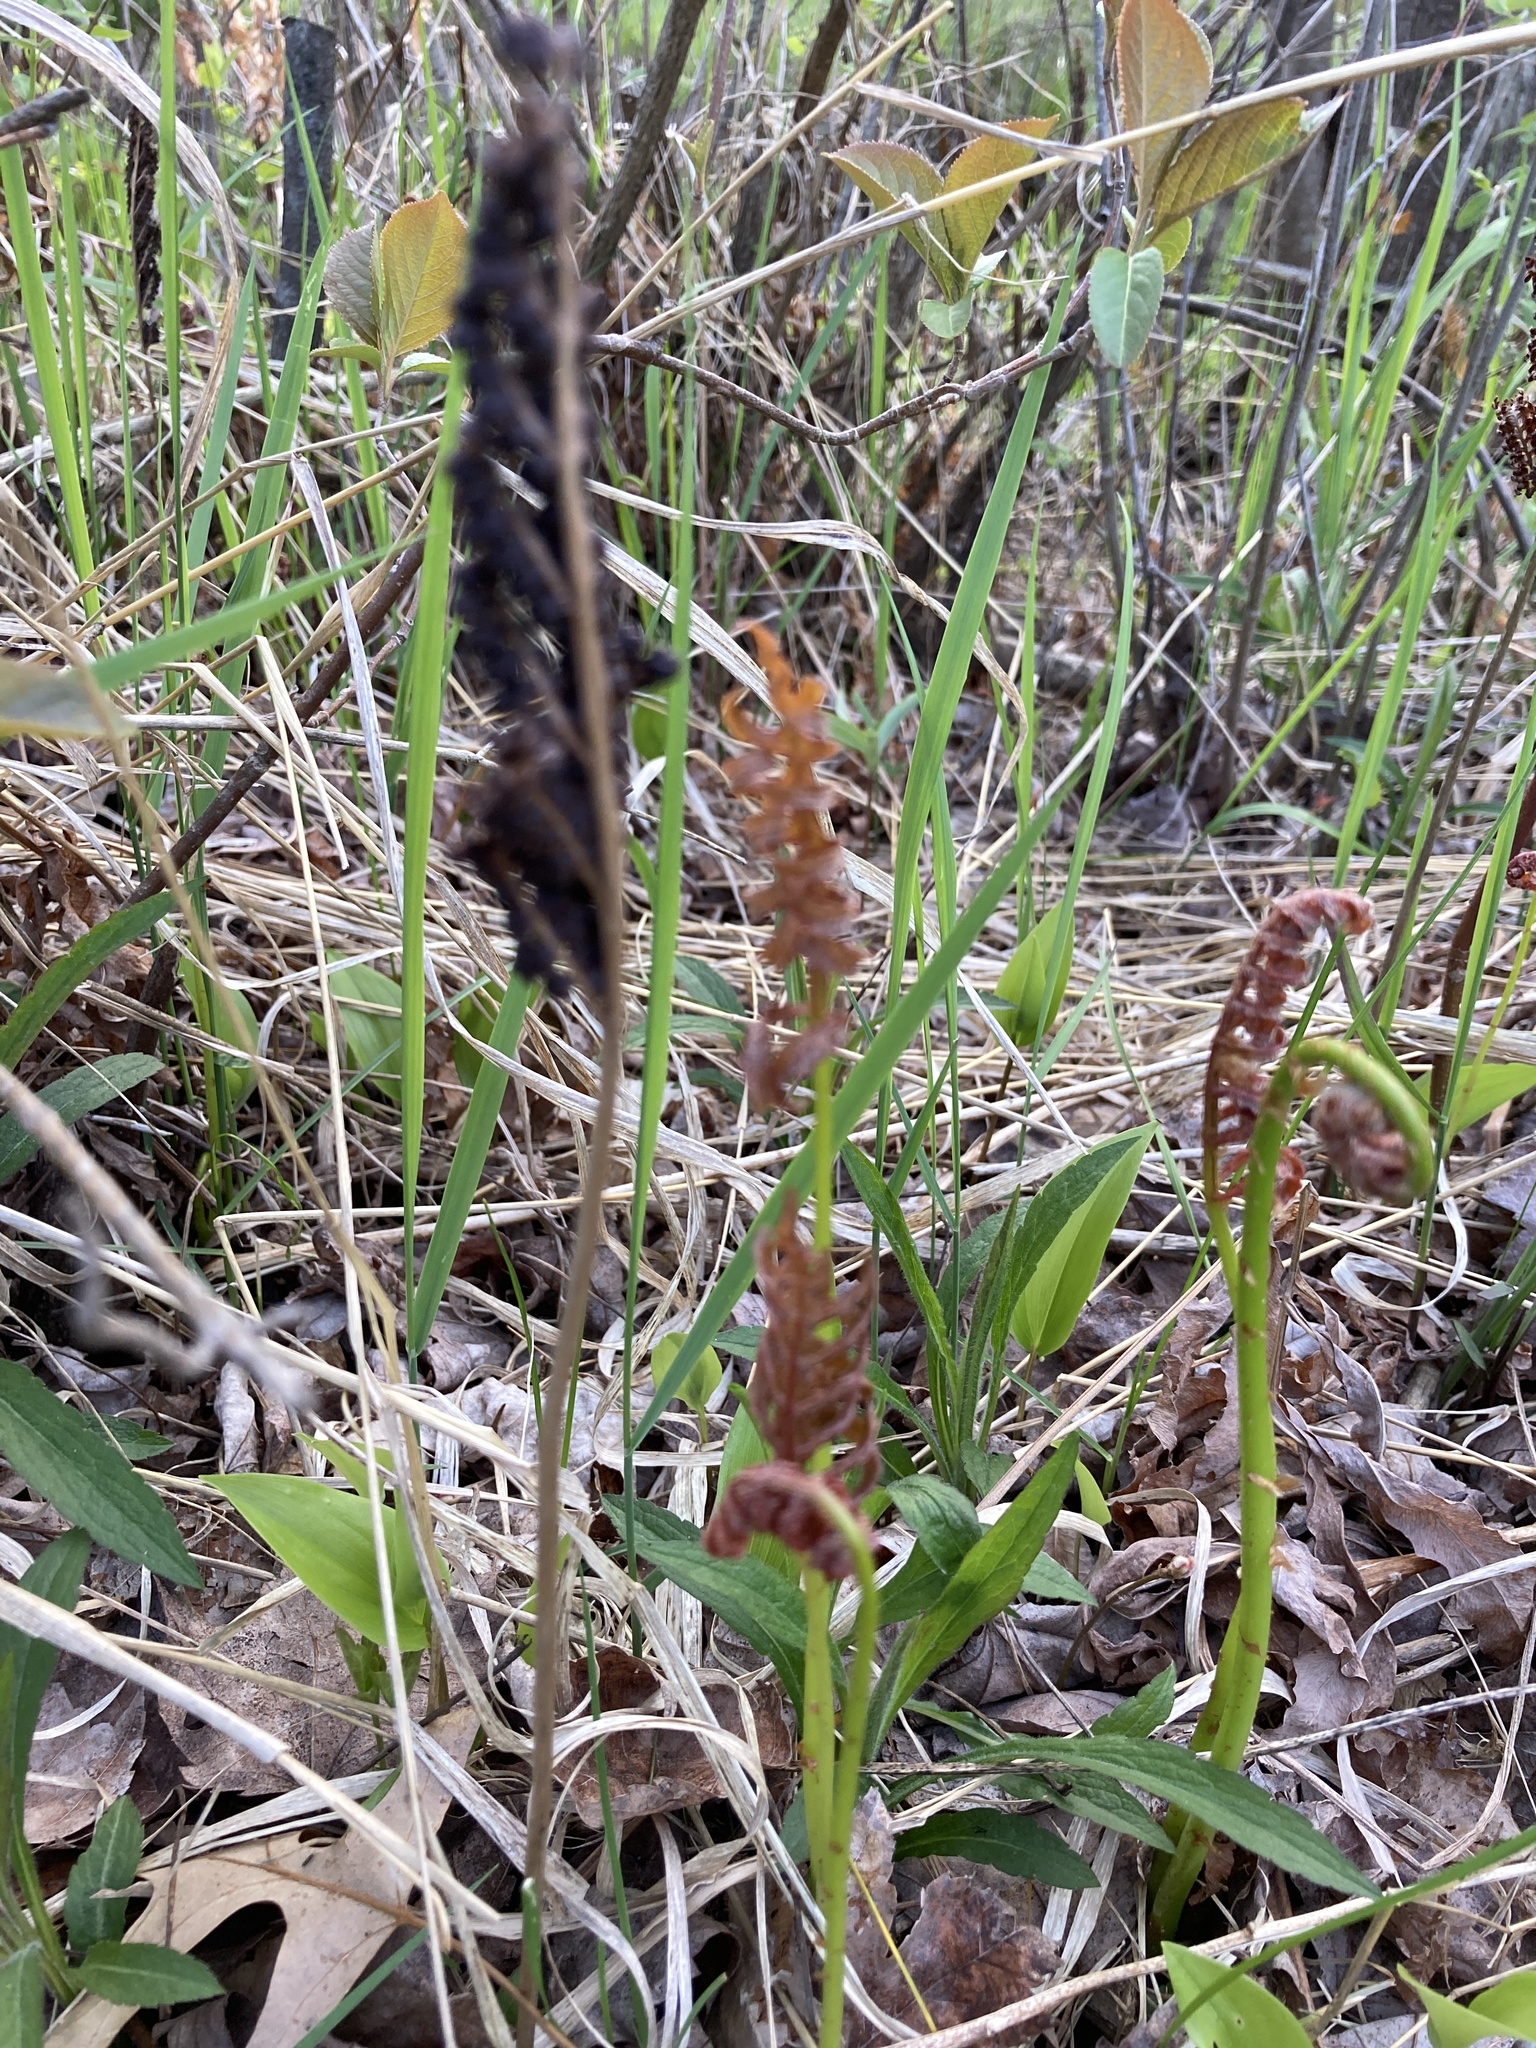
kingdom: Plantae
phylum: Tracheophyta
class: Polypodiopsida
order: Polypodiales
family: Onocleaceae
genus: Onoclea
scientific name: Onoclea sensibilis
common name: Sensitive fern
